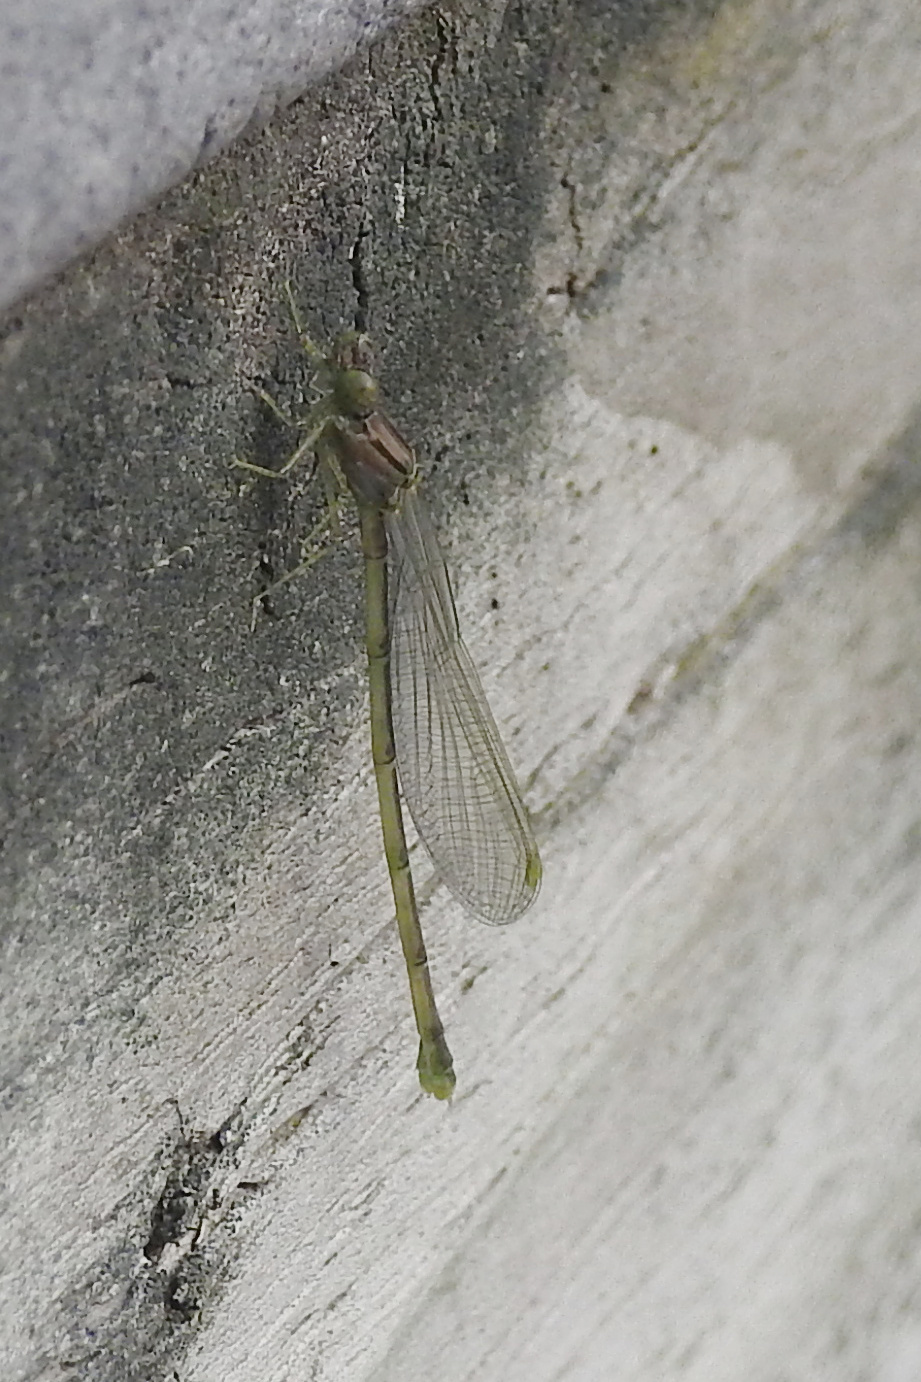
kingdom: Animalia
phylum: Arthropoda
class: Insecta
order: Odonata
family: Coenagrionidae
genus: Enallagma
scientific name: Enallagma signatum
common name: Orange bluet
